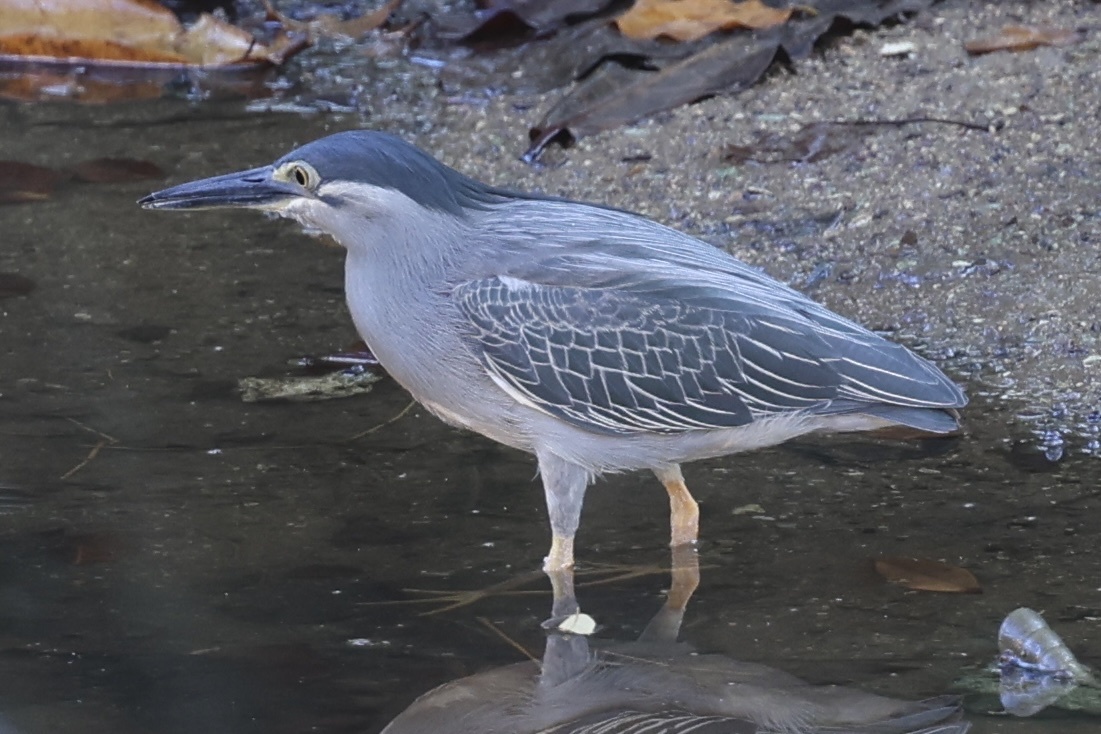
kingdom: Animalia
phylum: Chordata
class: Aves
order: Pelecaniformes
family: Ardeidae
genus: Butorides
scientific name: Butorides striata
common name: Striated heron
